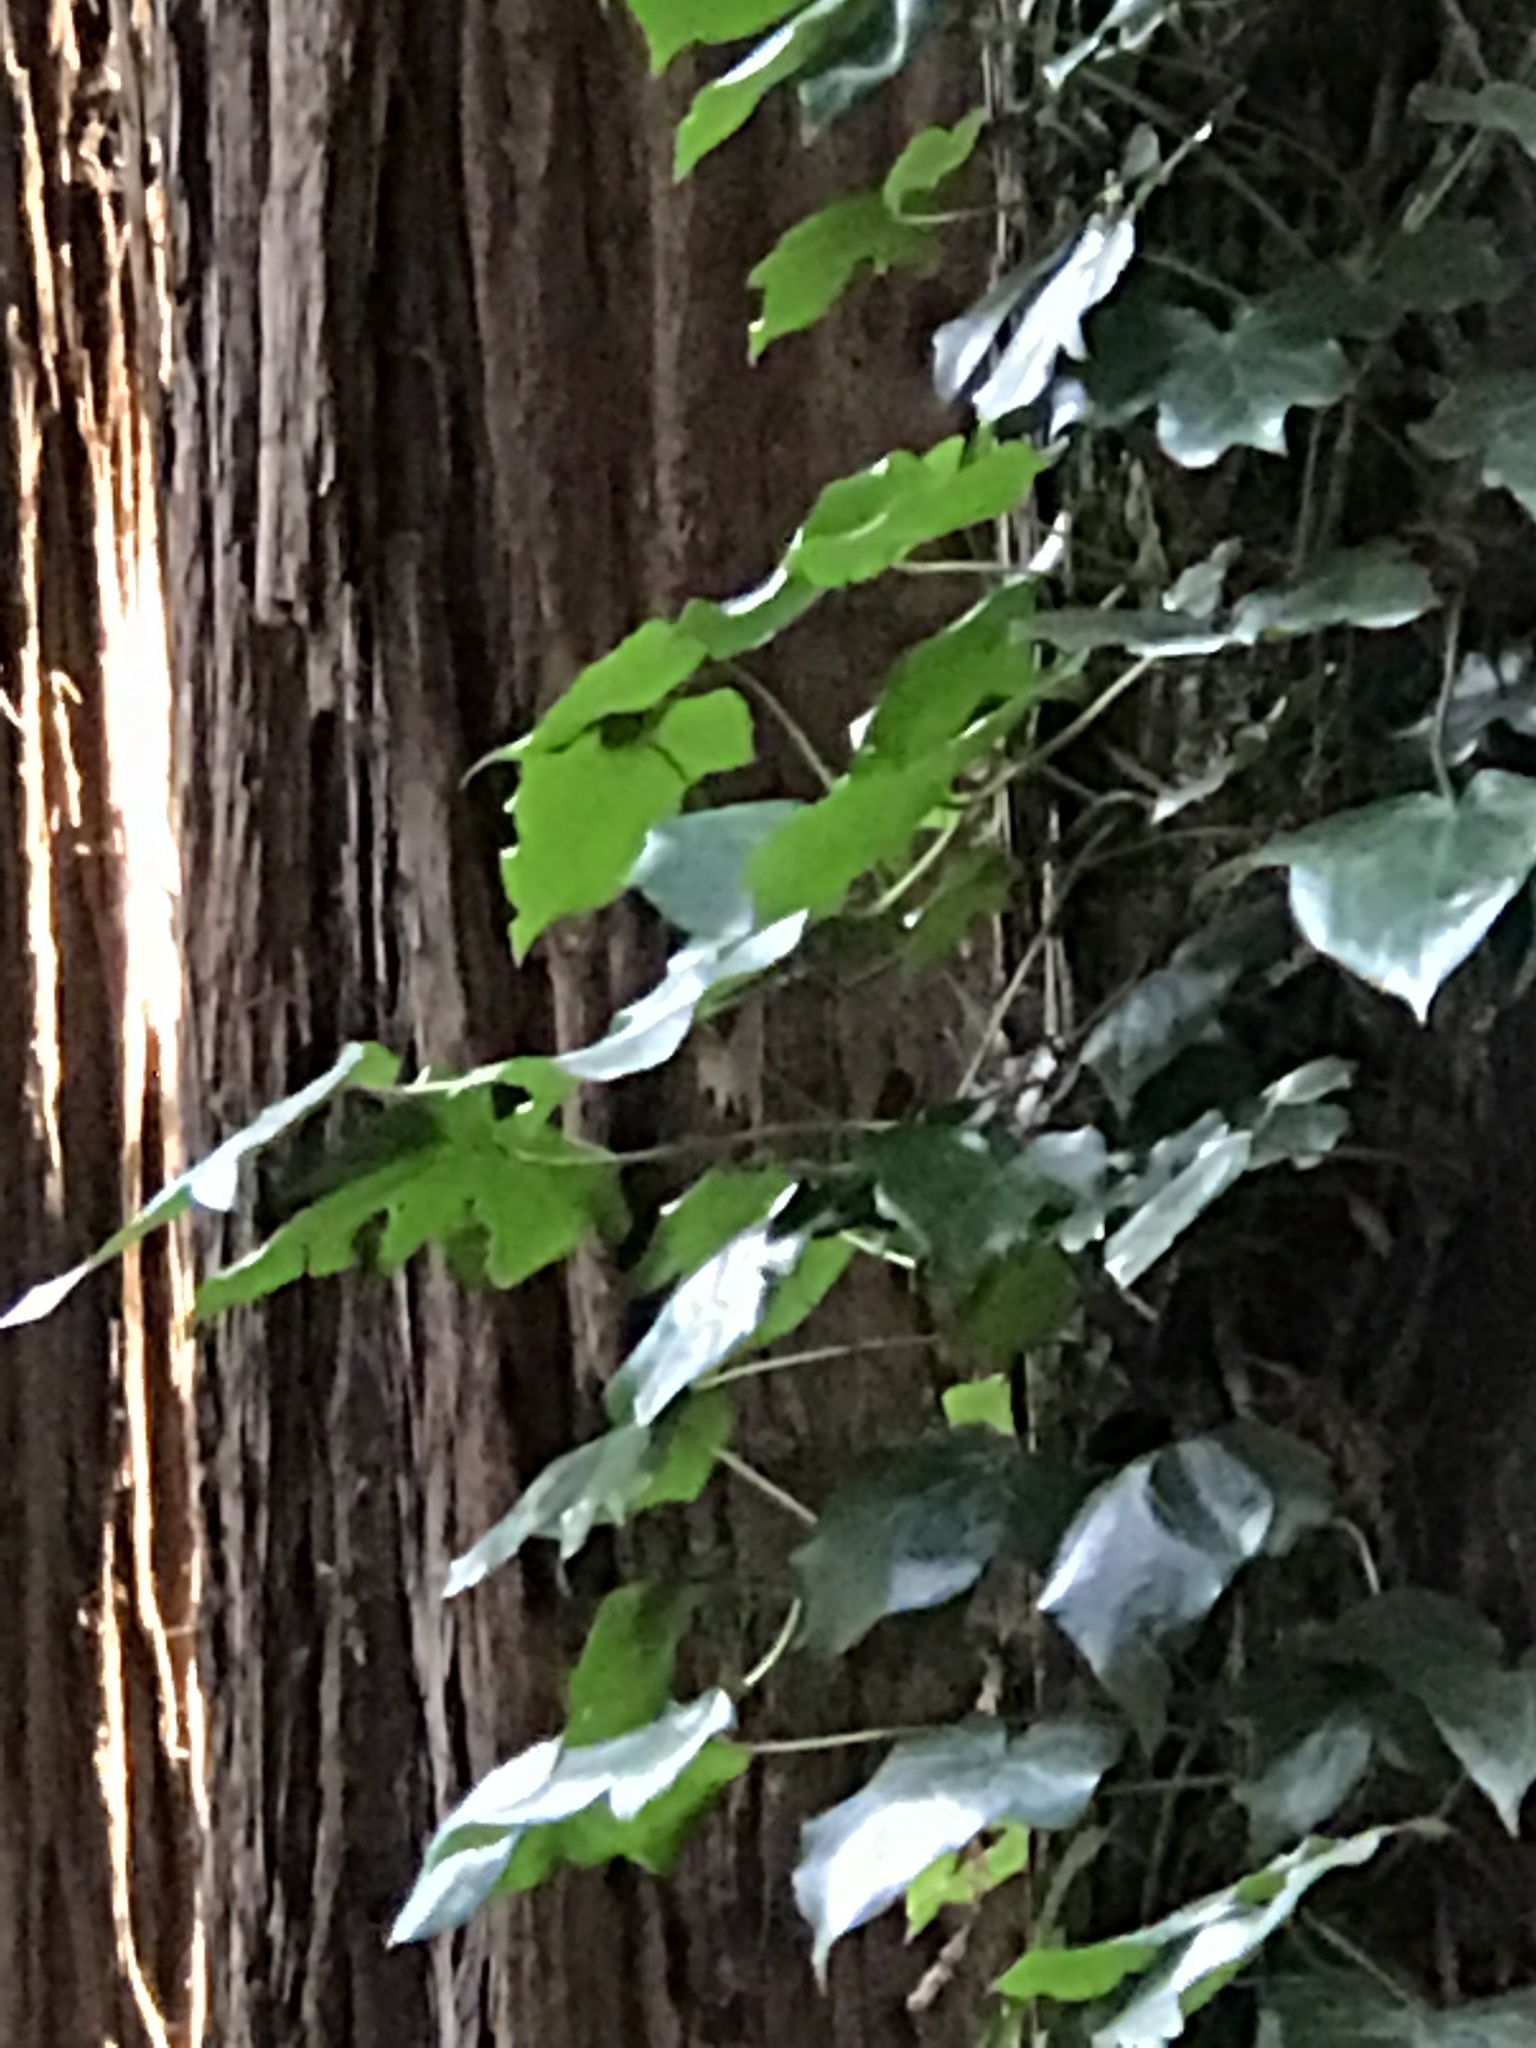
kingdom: Plantae
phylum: Tracheophyta
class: Magnoliopsida
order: Apiales
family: Araliaceae
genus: Hedera
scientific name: Hedera helix
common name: Ivy
